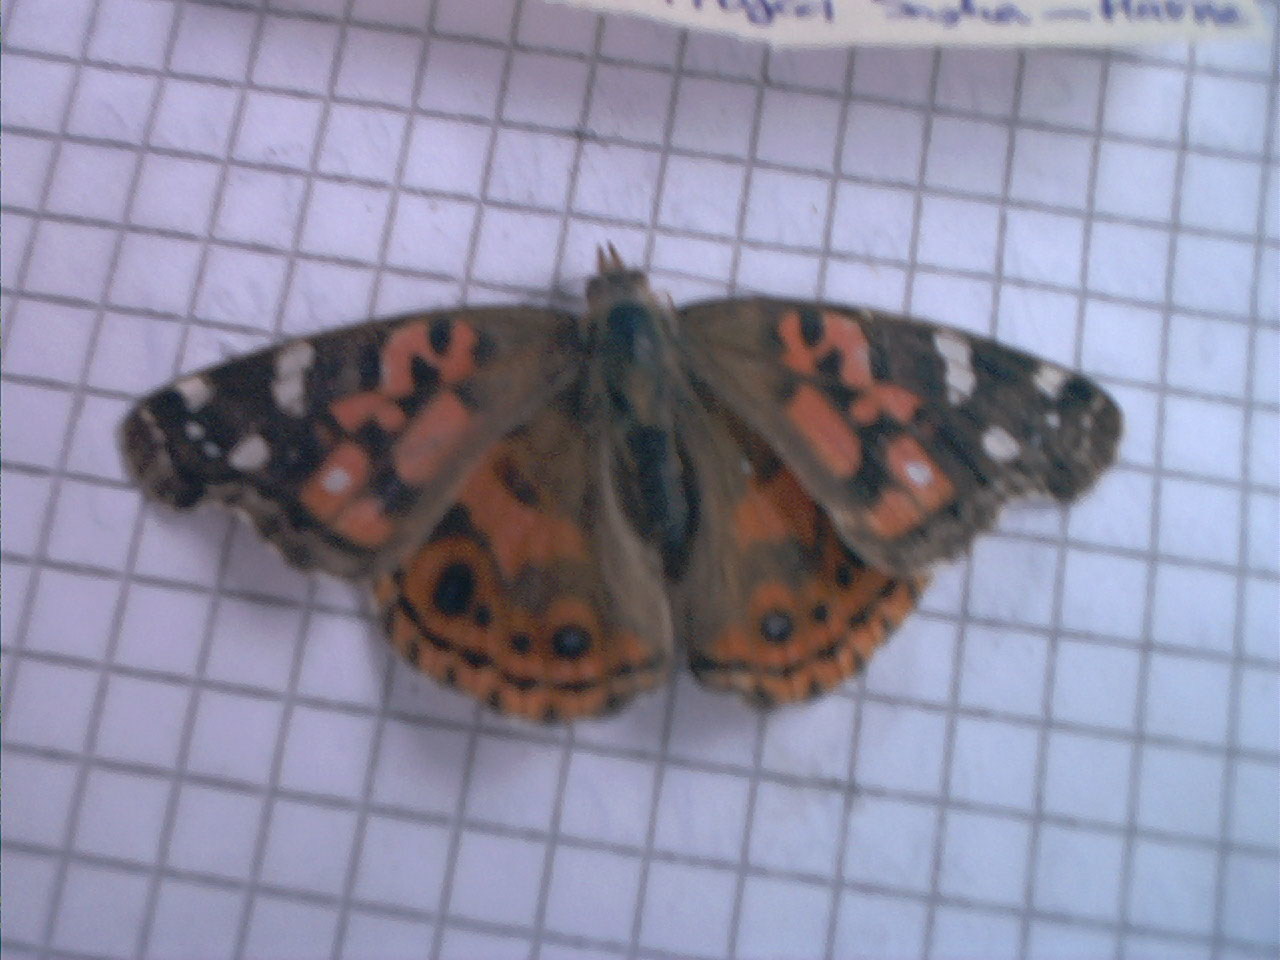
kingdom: Animalia
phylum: Arthropoda
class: Insecta
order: Lepidoptera
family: Nymphalidae
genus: Vanessa
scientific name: Vanessa braziliensis
